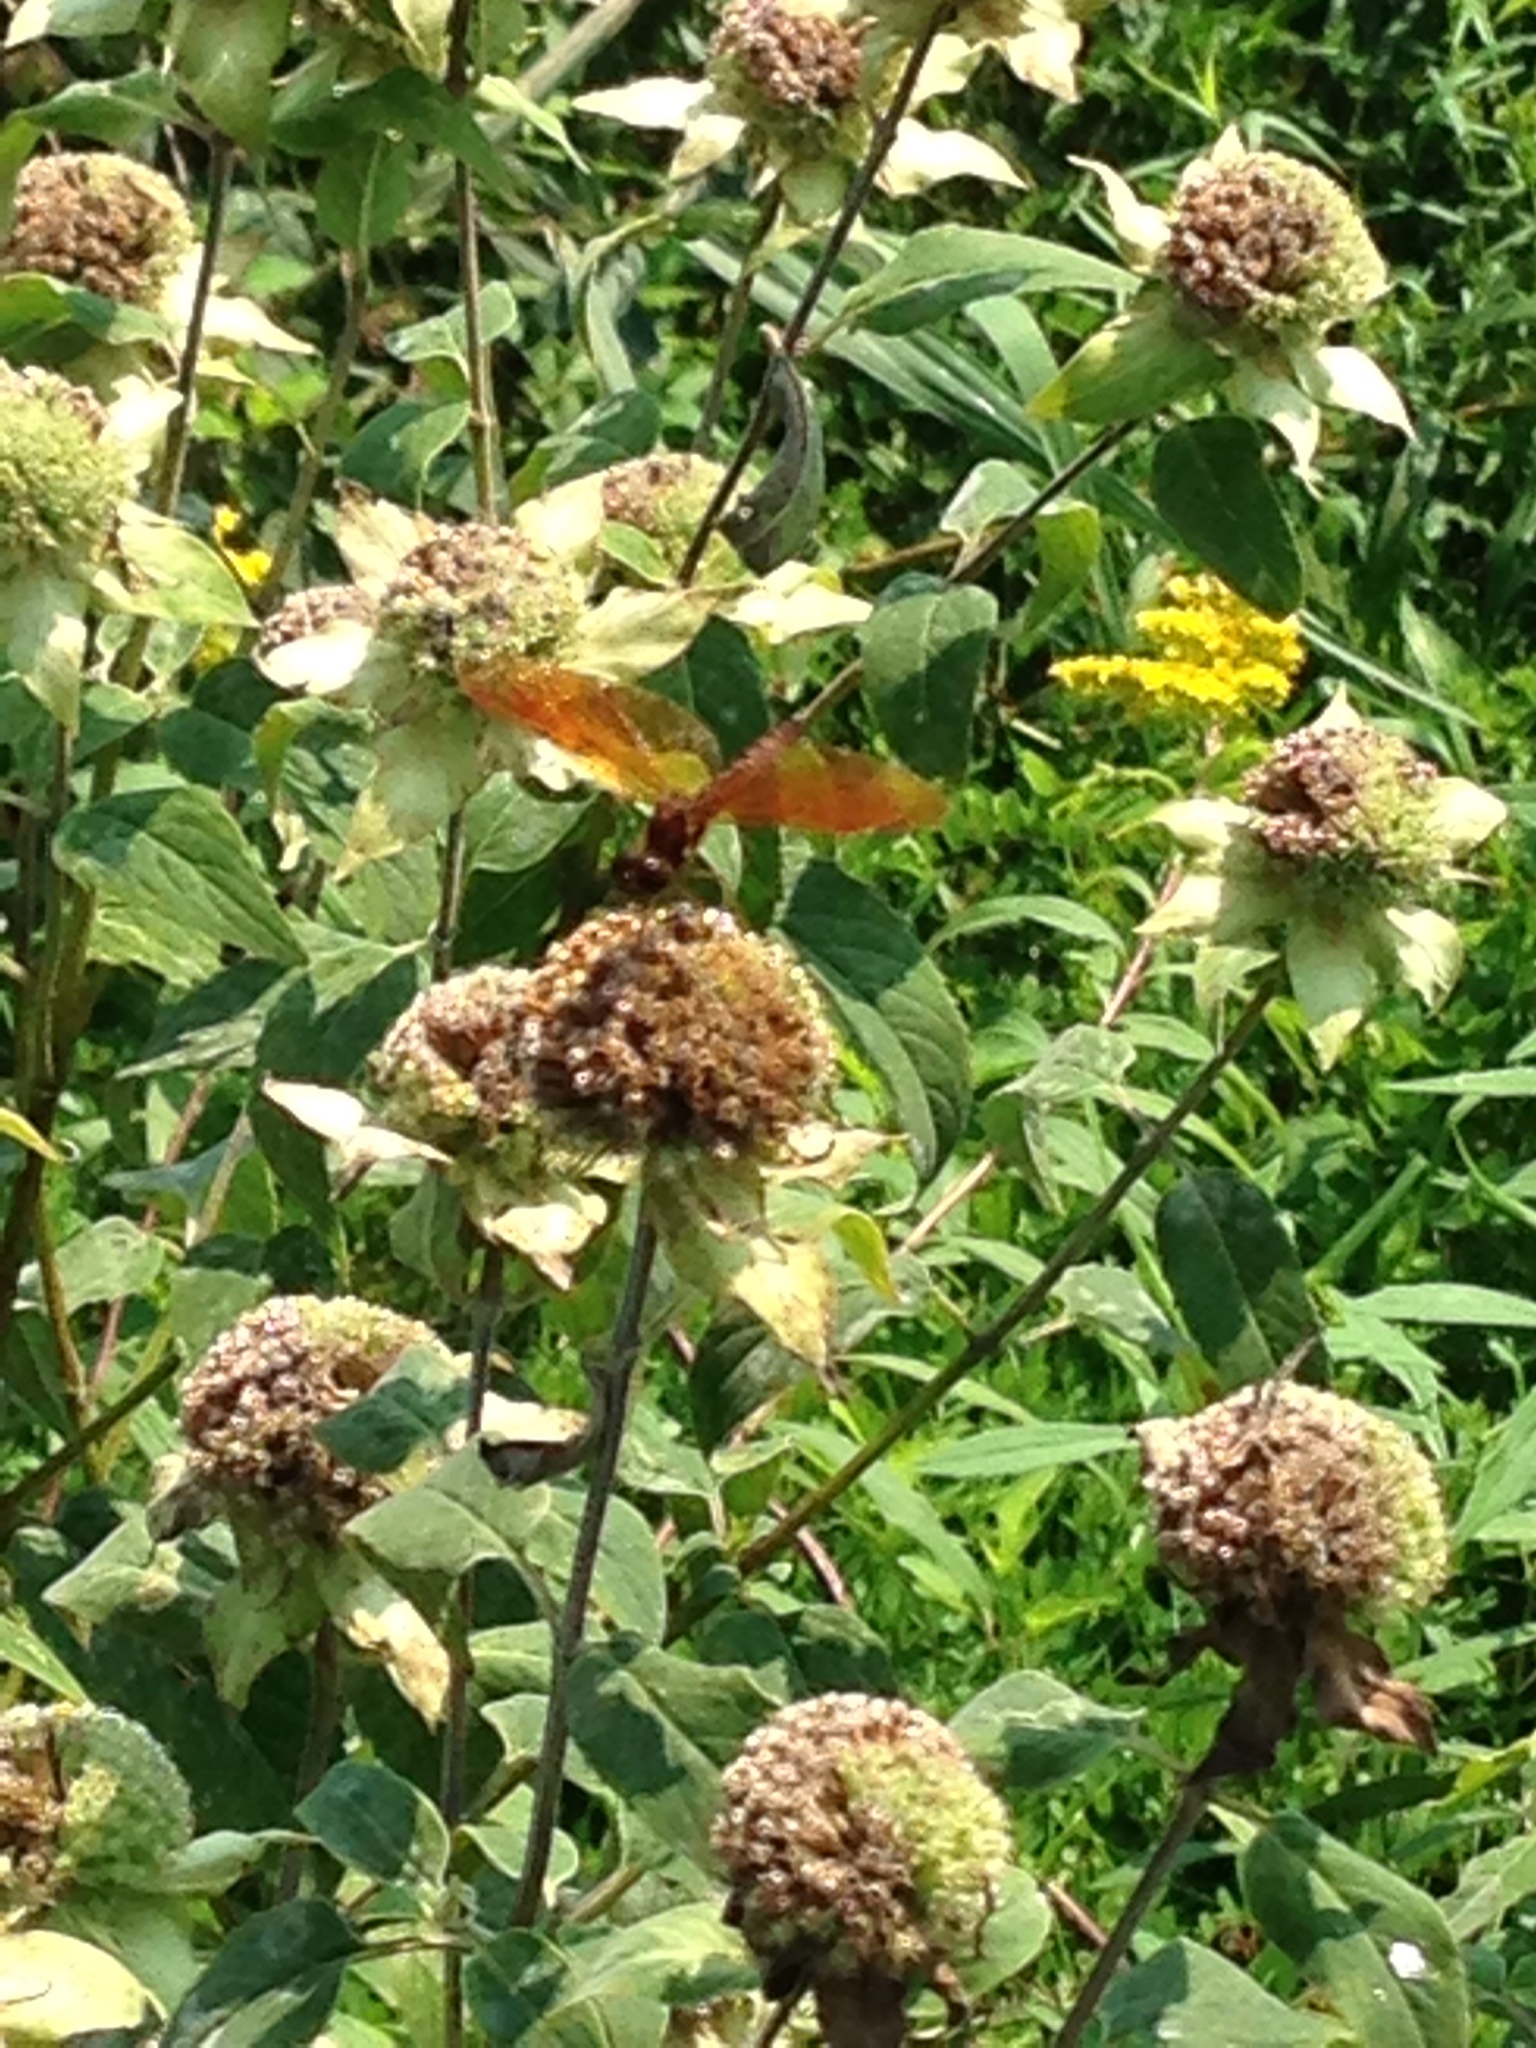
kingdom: Animalia
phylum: Arthropoda
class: Insecta
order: Odonata
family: Libellulidae
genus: Perithemis
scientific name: Perithemis tenera
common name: Eastern amberwing
